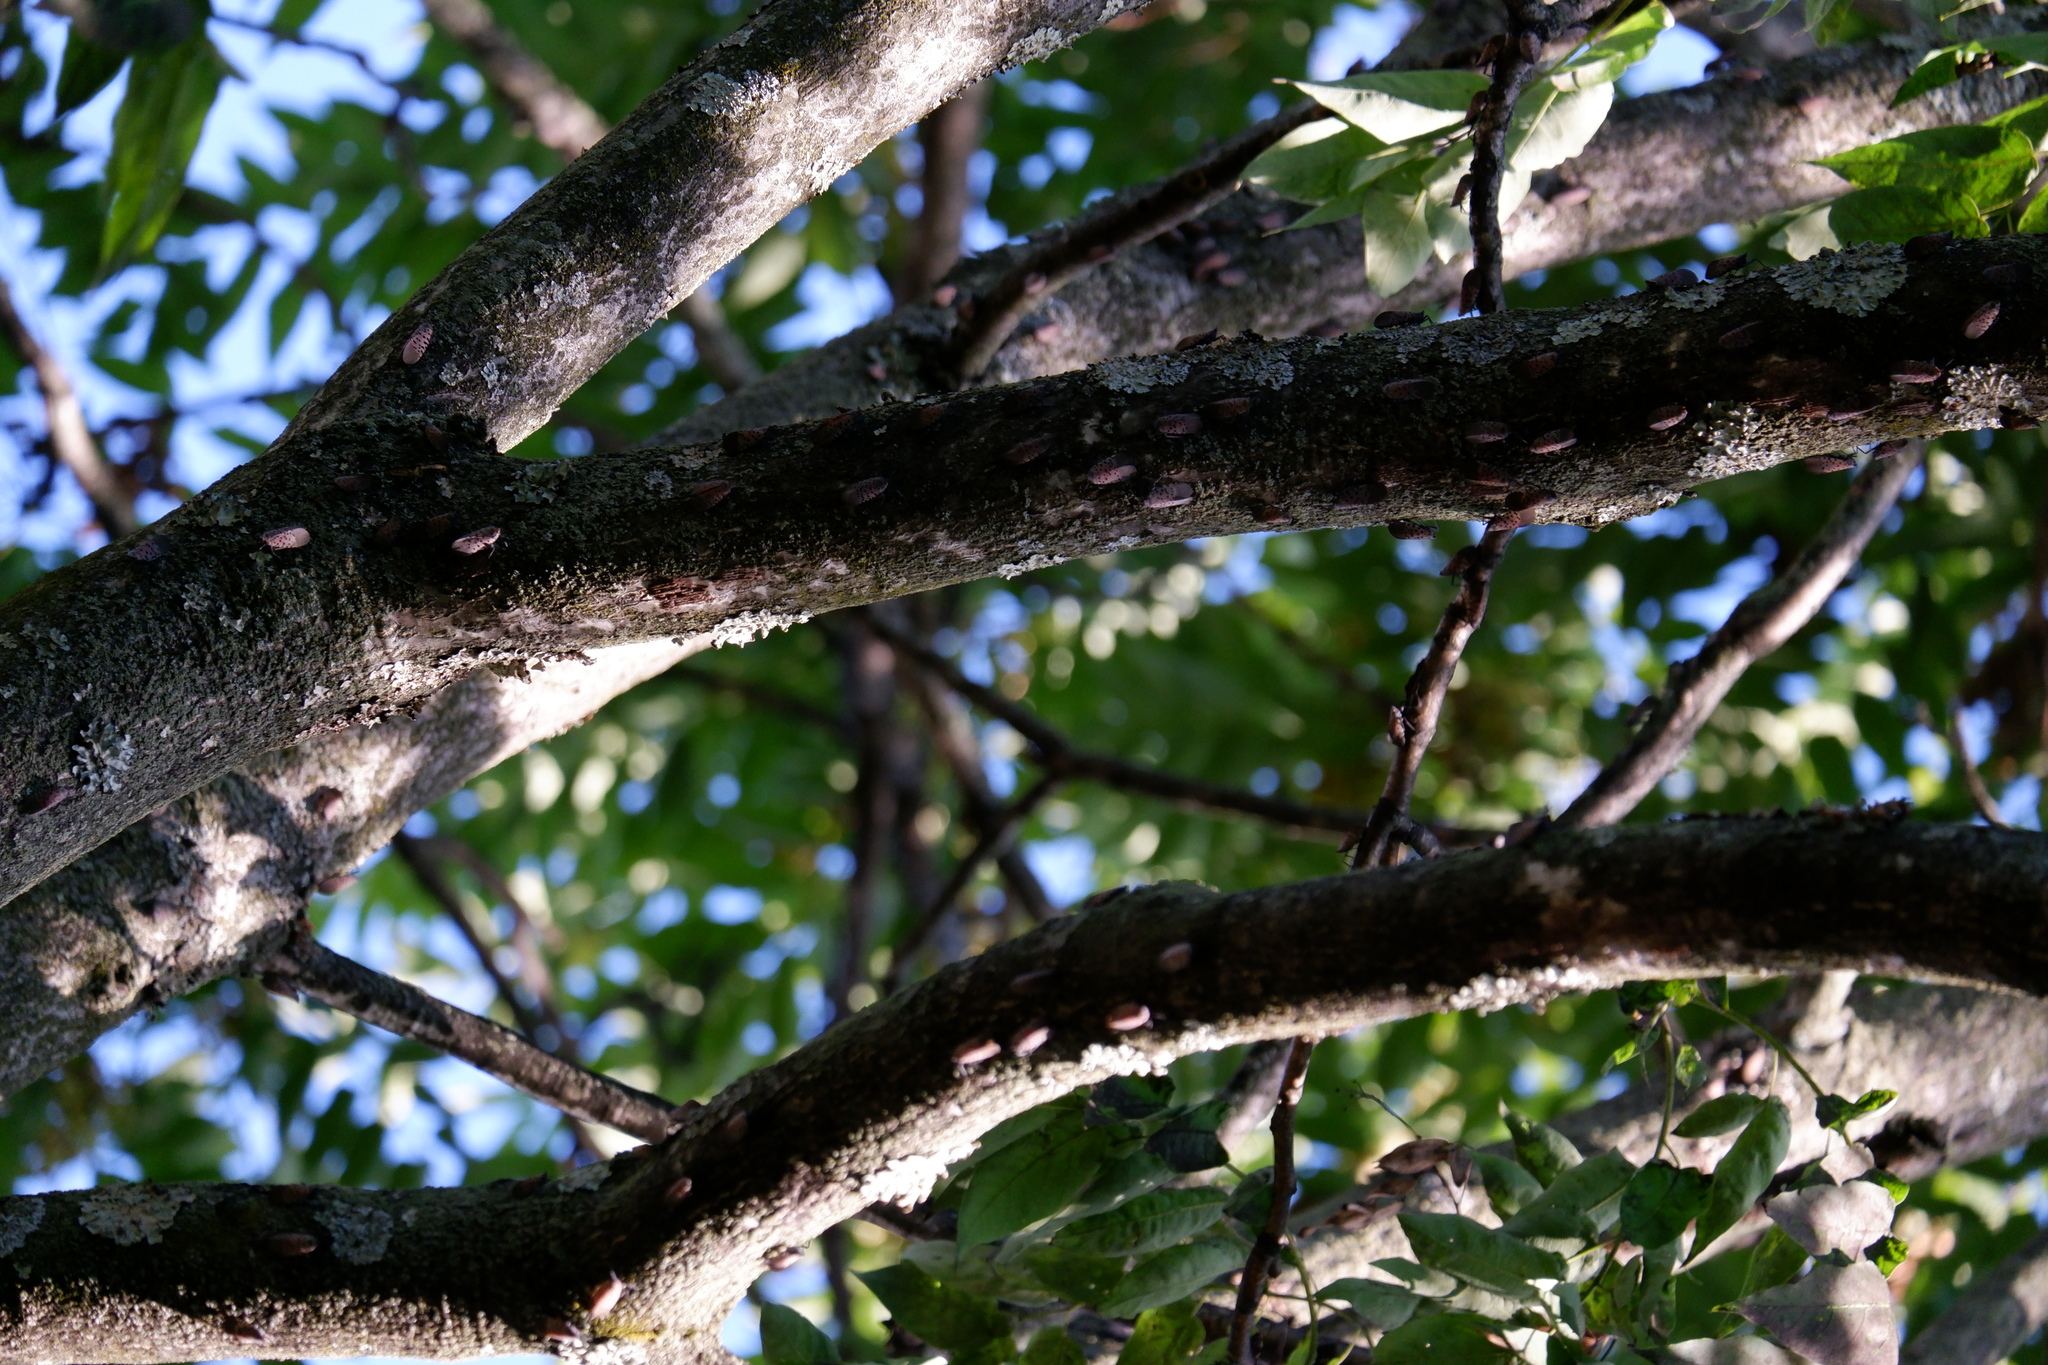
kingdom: Animalia
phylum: Arthropoda
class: Insecta
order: Hemiptera
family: Fulgoridae
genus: Lycorma
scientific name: Lycorma delicatula
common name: Spotted lanternfly
